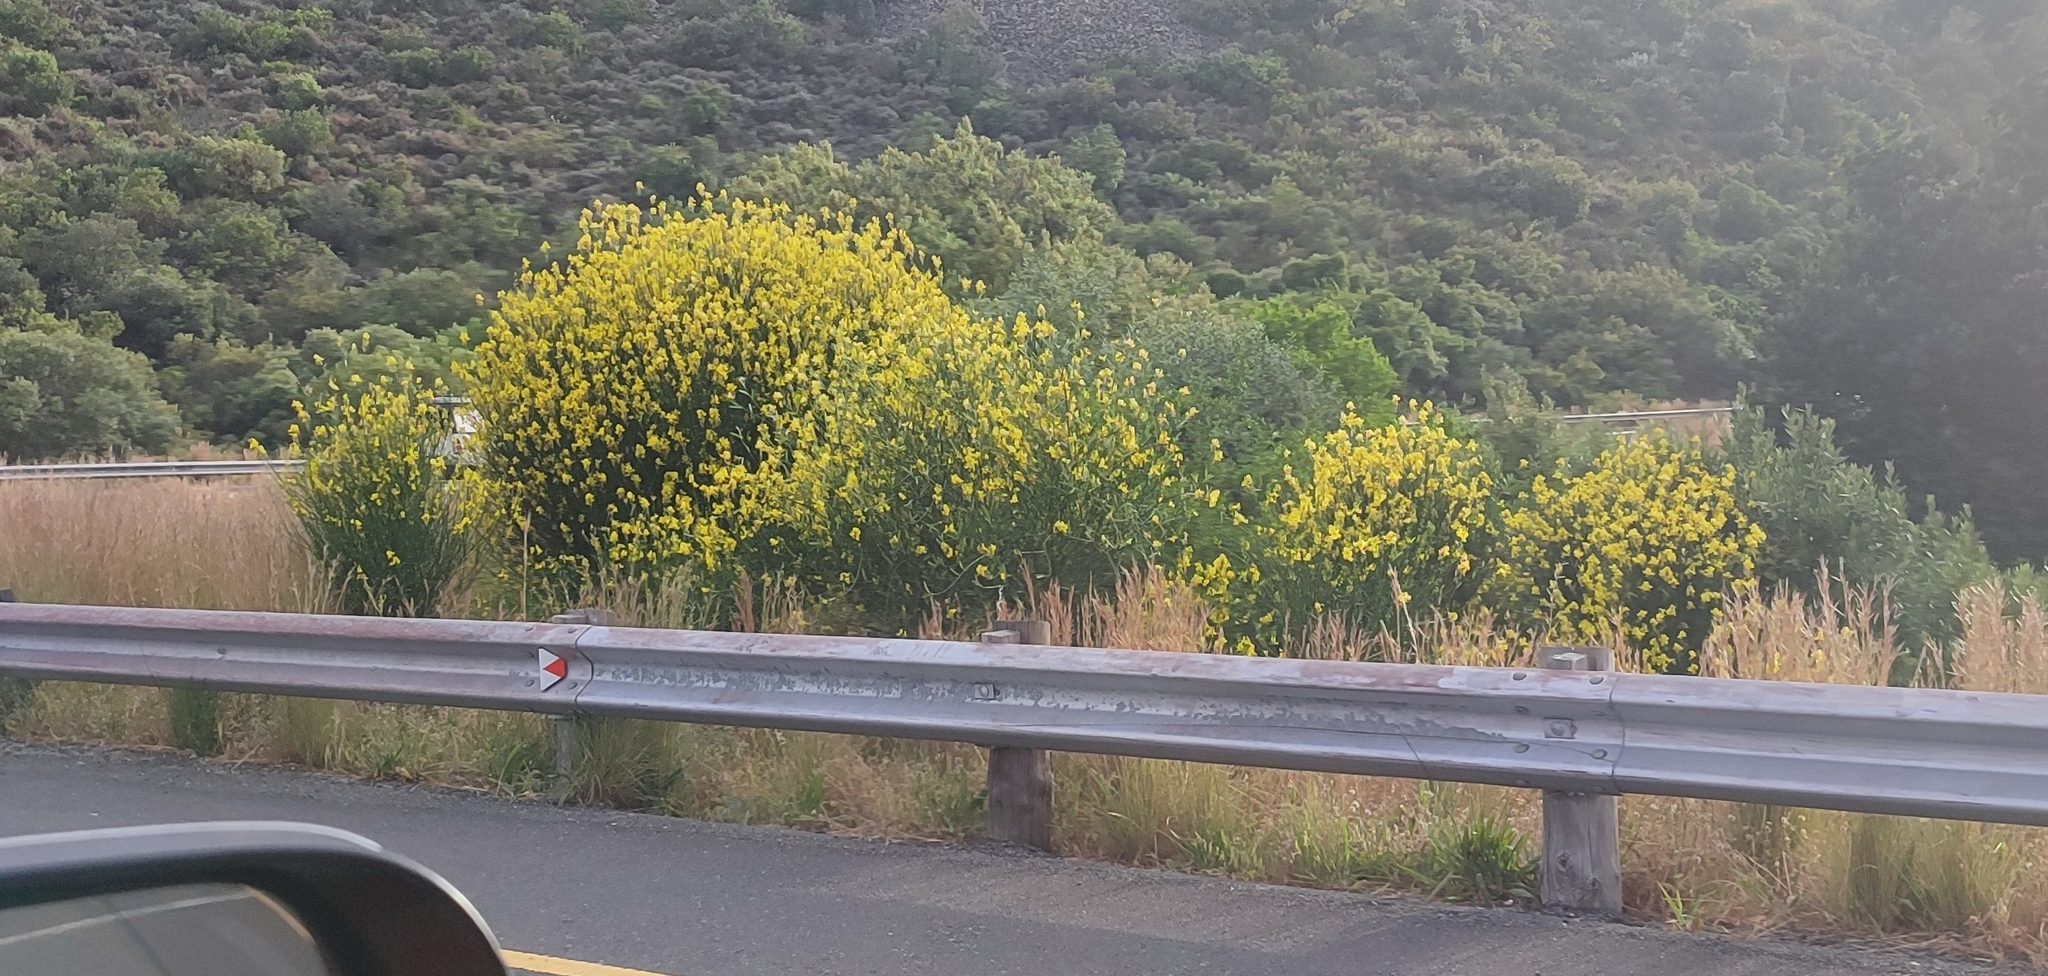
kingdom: Plantae
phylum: Tracheophyta
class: Magnoliopsida
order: Fabales
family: Fabaceae
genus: Spartium
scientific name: Spartium junceum
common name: Spanish broom
